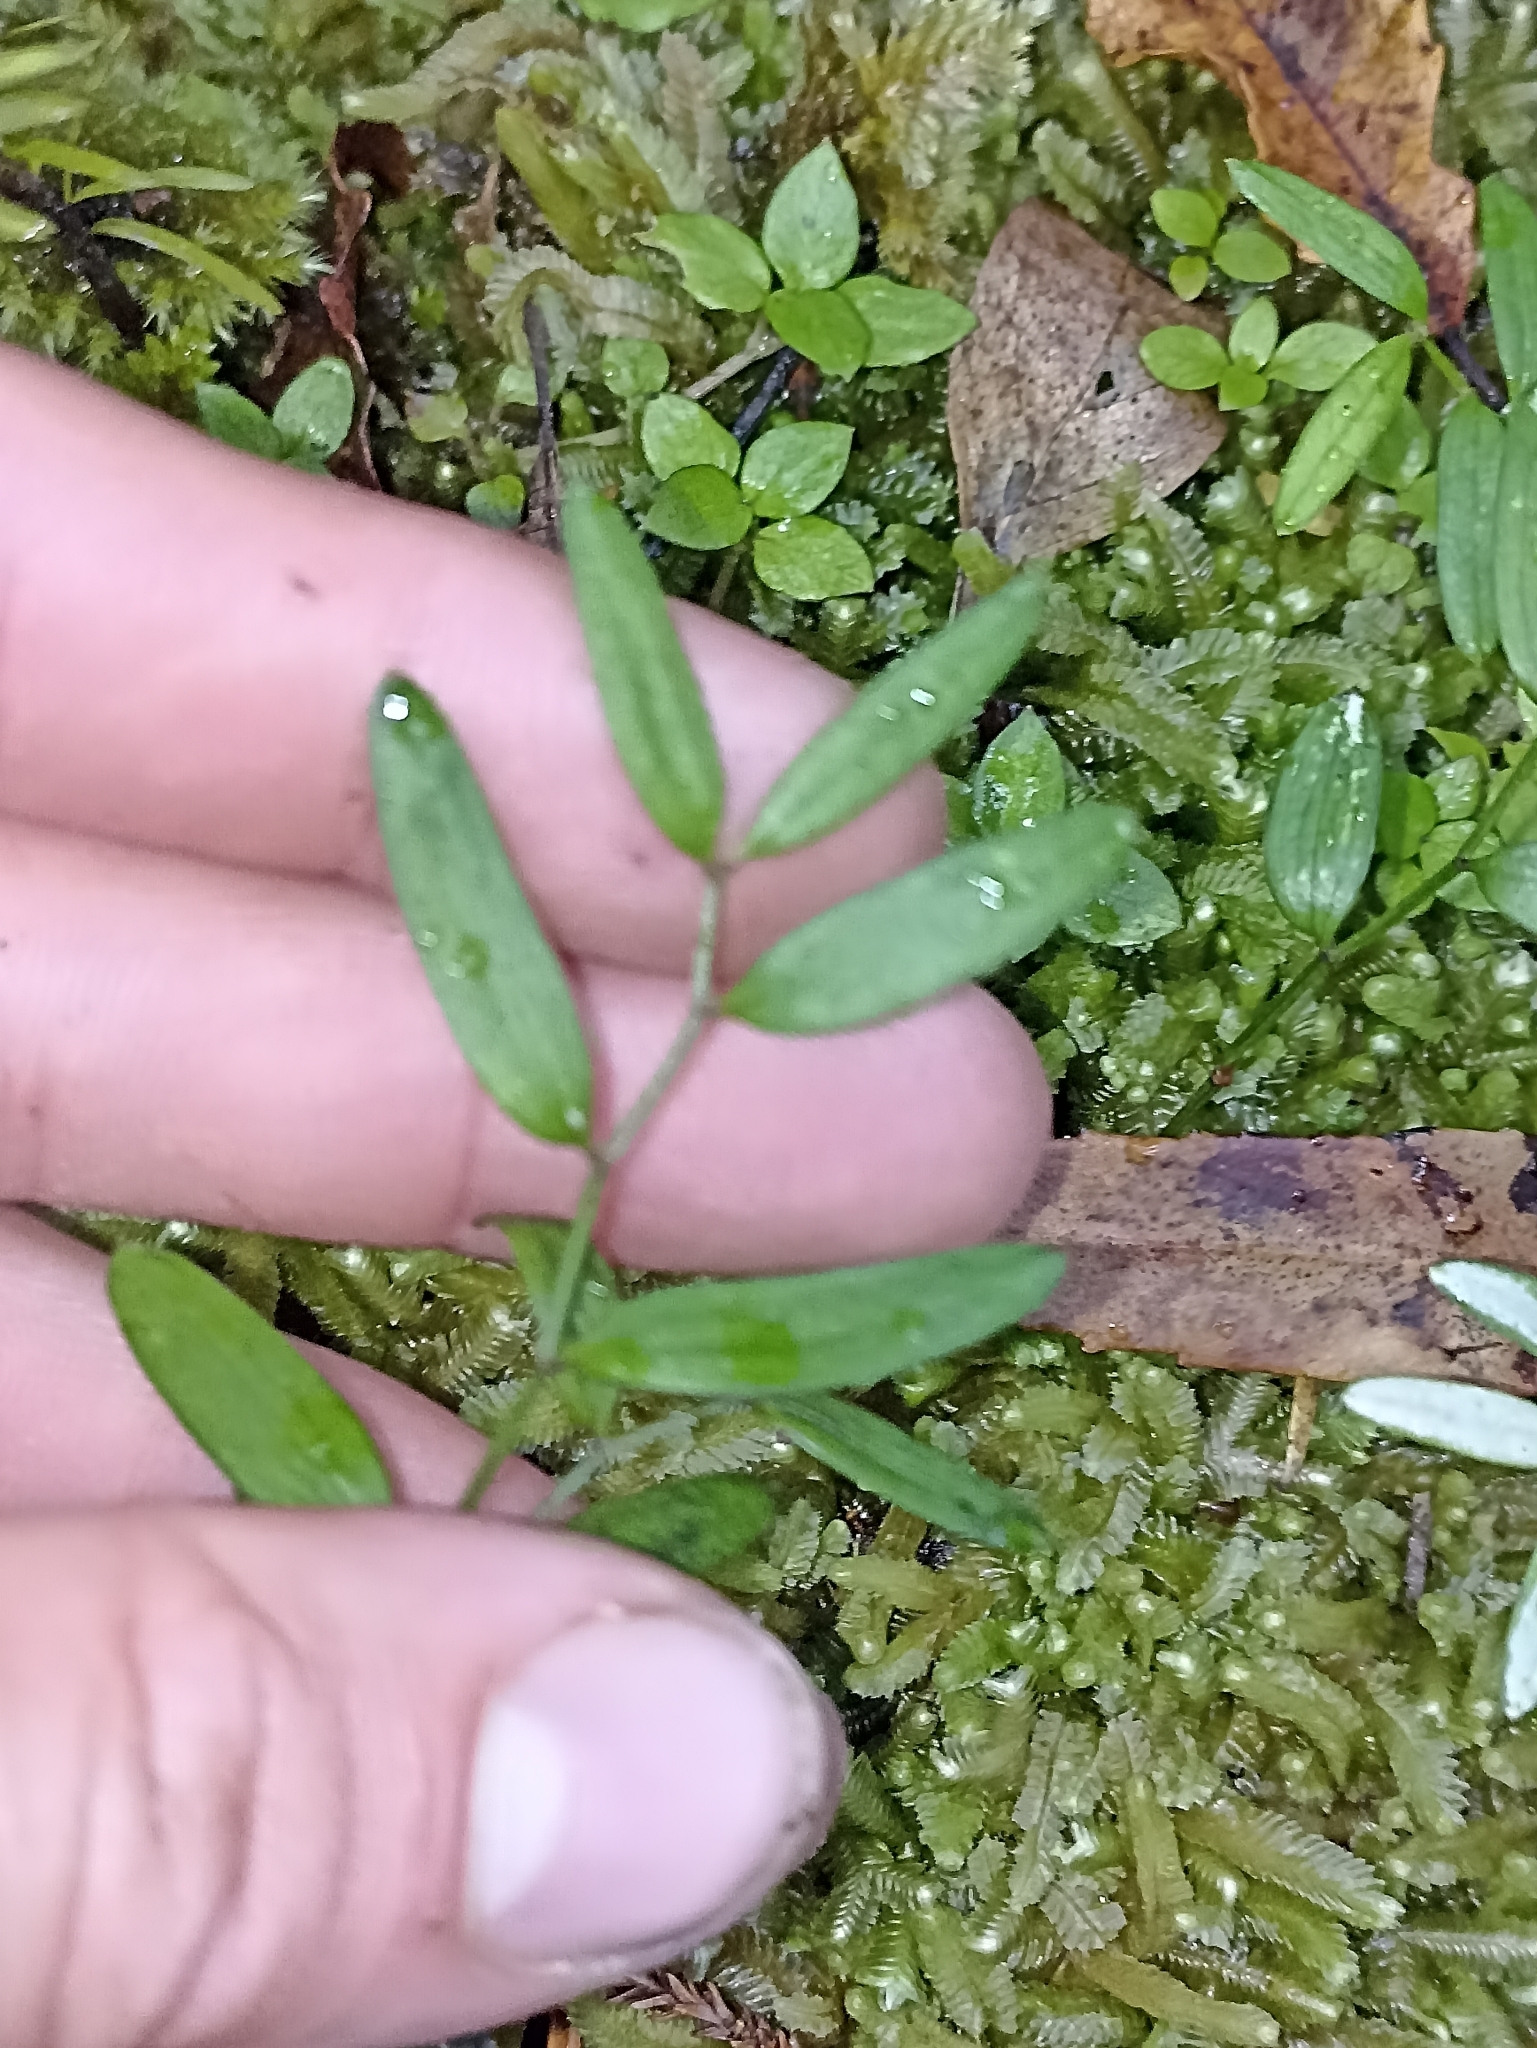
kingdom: Plantae
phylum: Tracheophyta
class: Liliopsida
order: Liliales
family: Alstroemeriaceae
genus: Luzuriaga
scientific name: Luzuriaga parviflora
